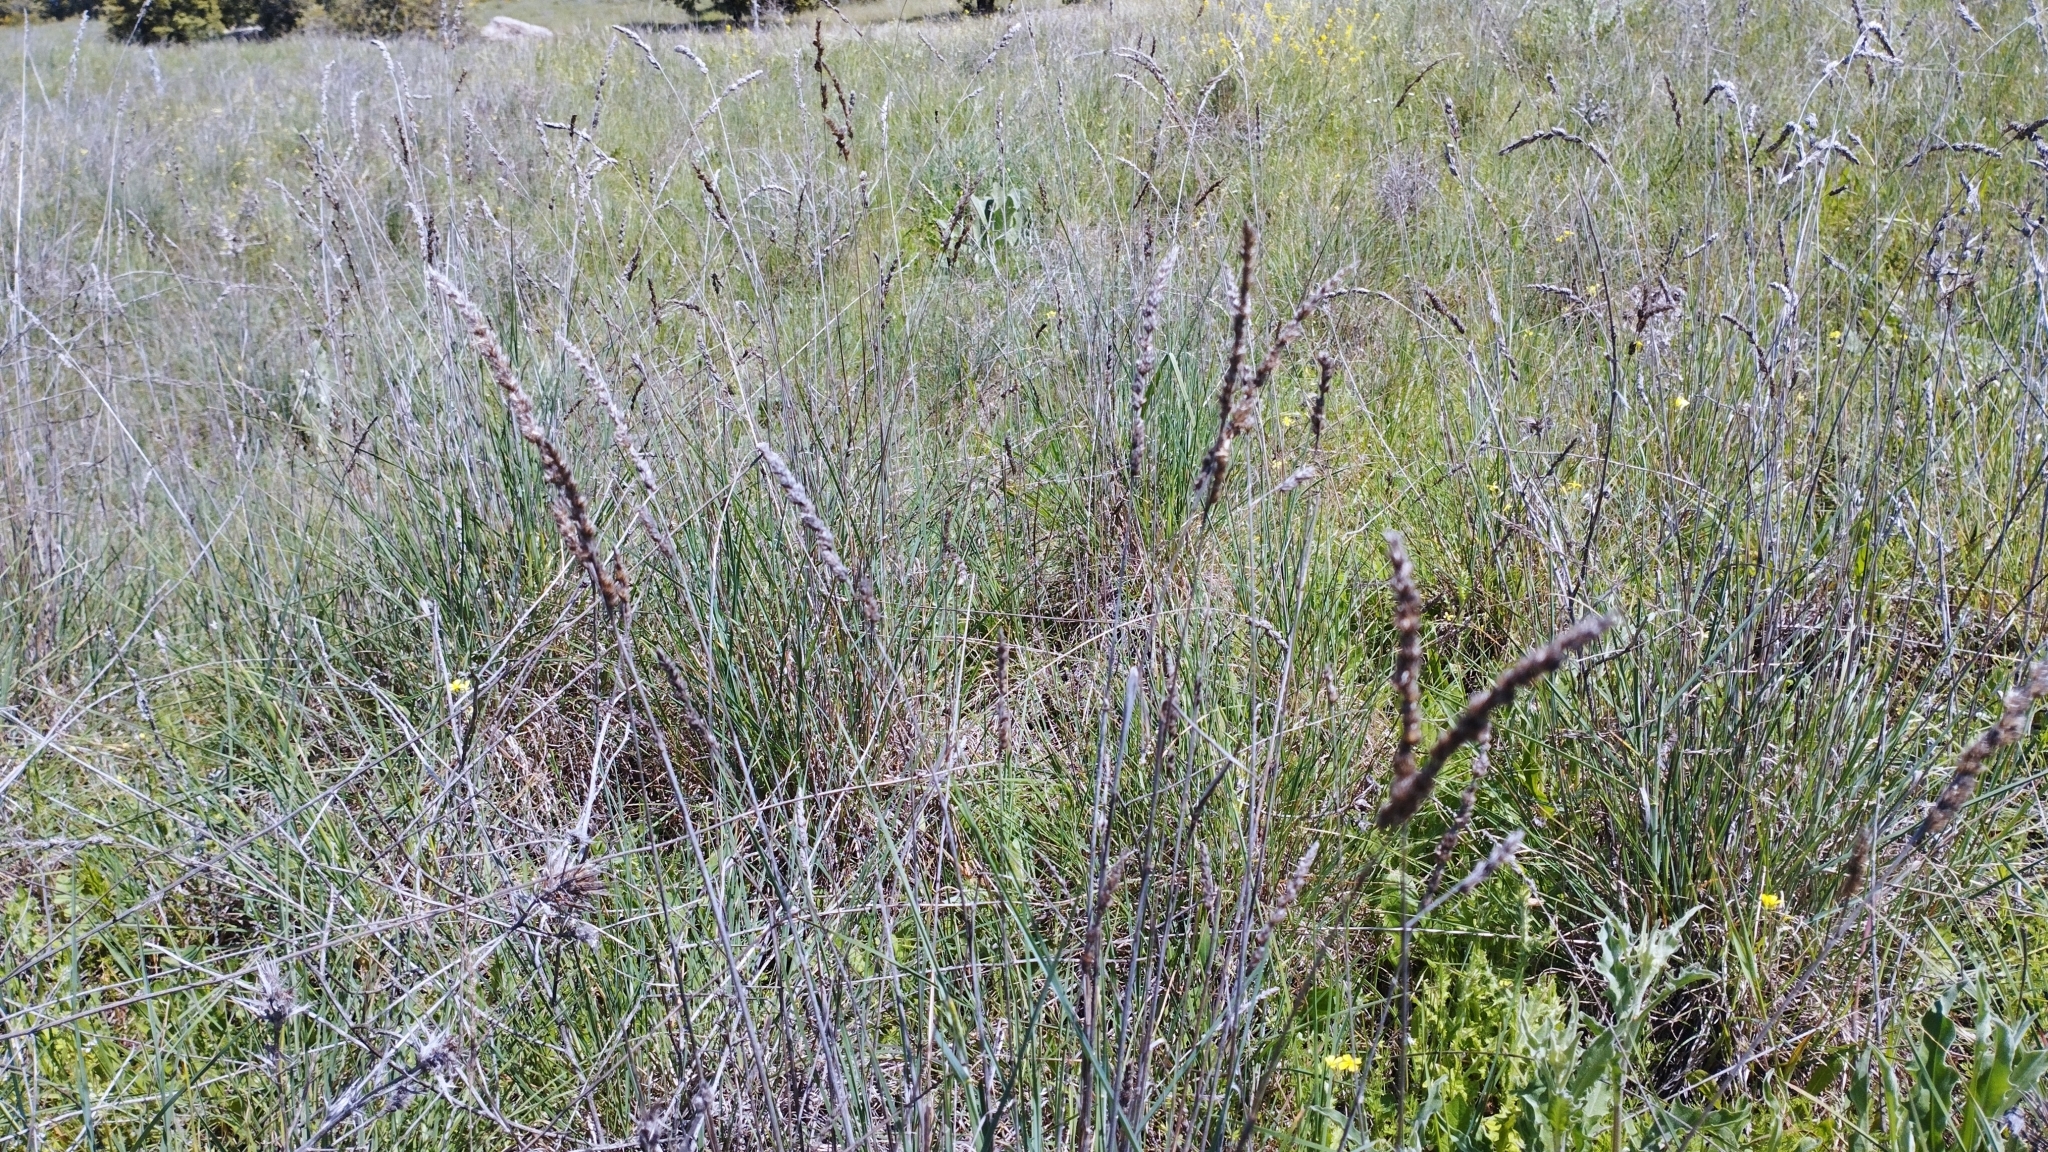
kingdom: Plantae
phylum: Tracheophyta
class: Liliopsida
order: Poales
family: Poaceae
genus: Dactylis
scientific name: Dactylis glomerata
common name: Orchardgrass
